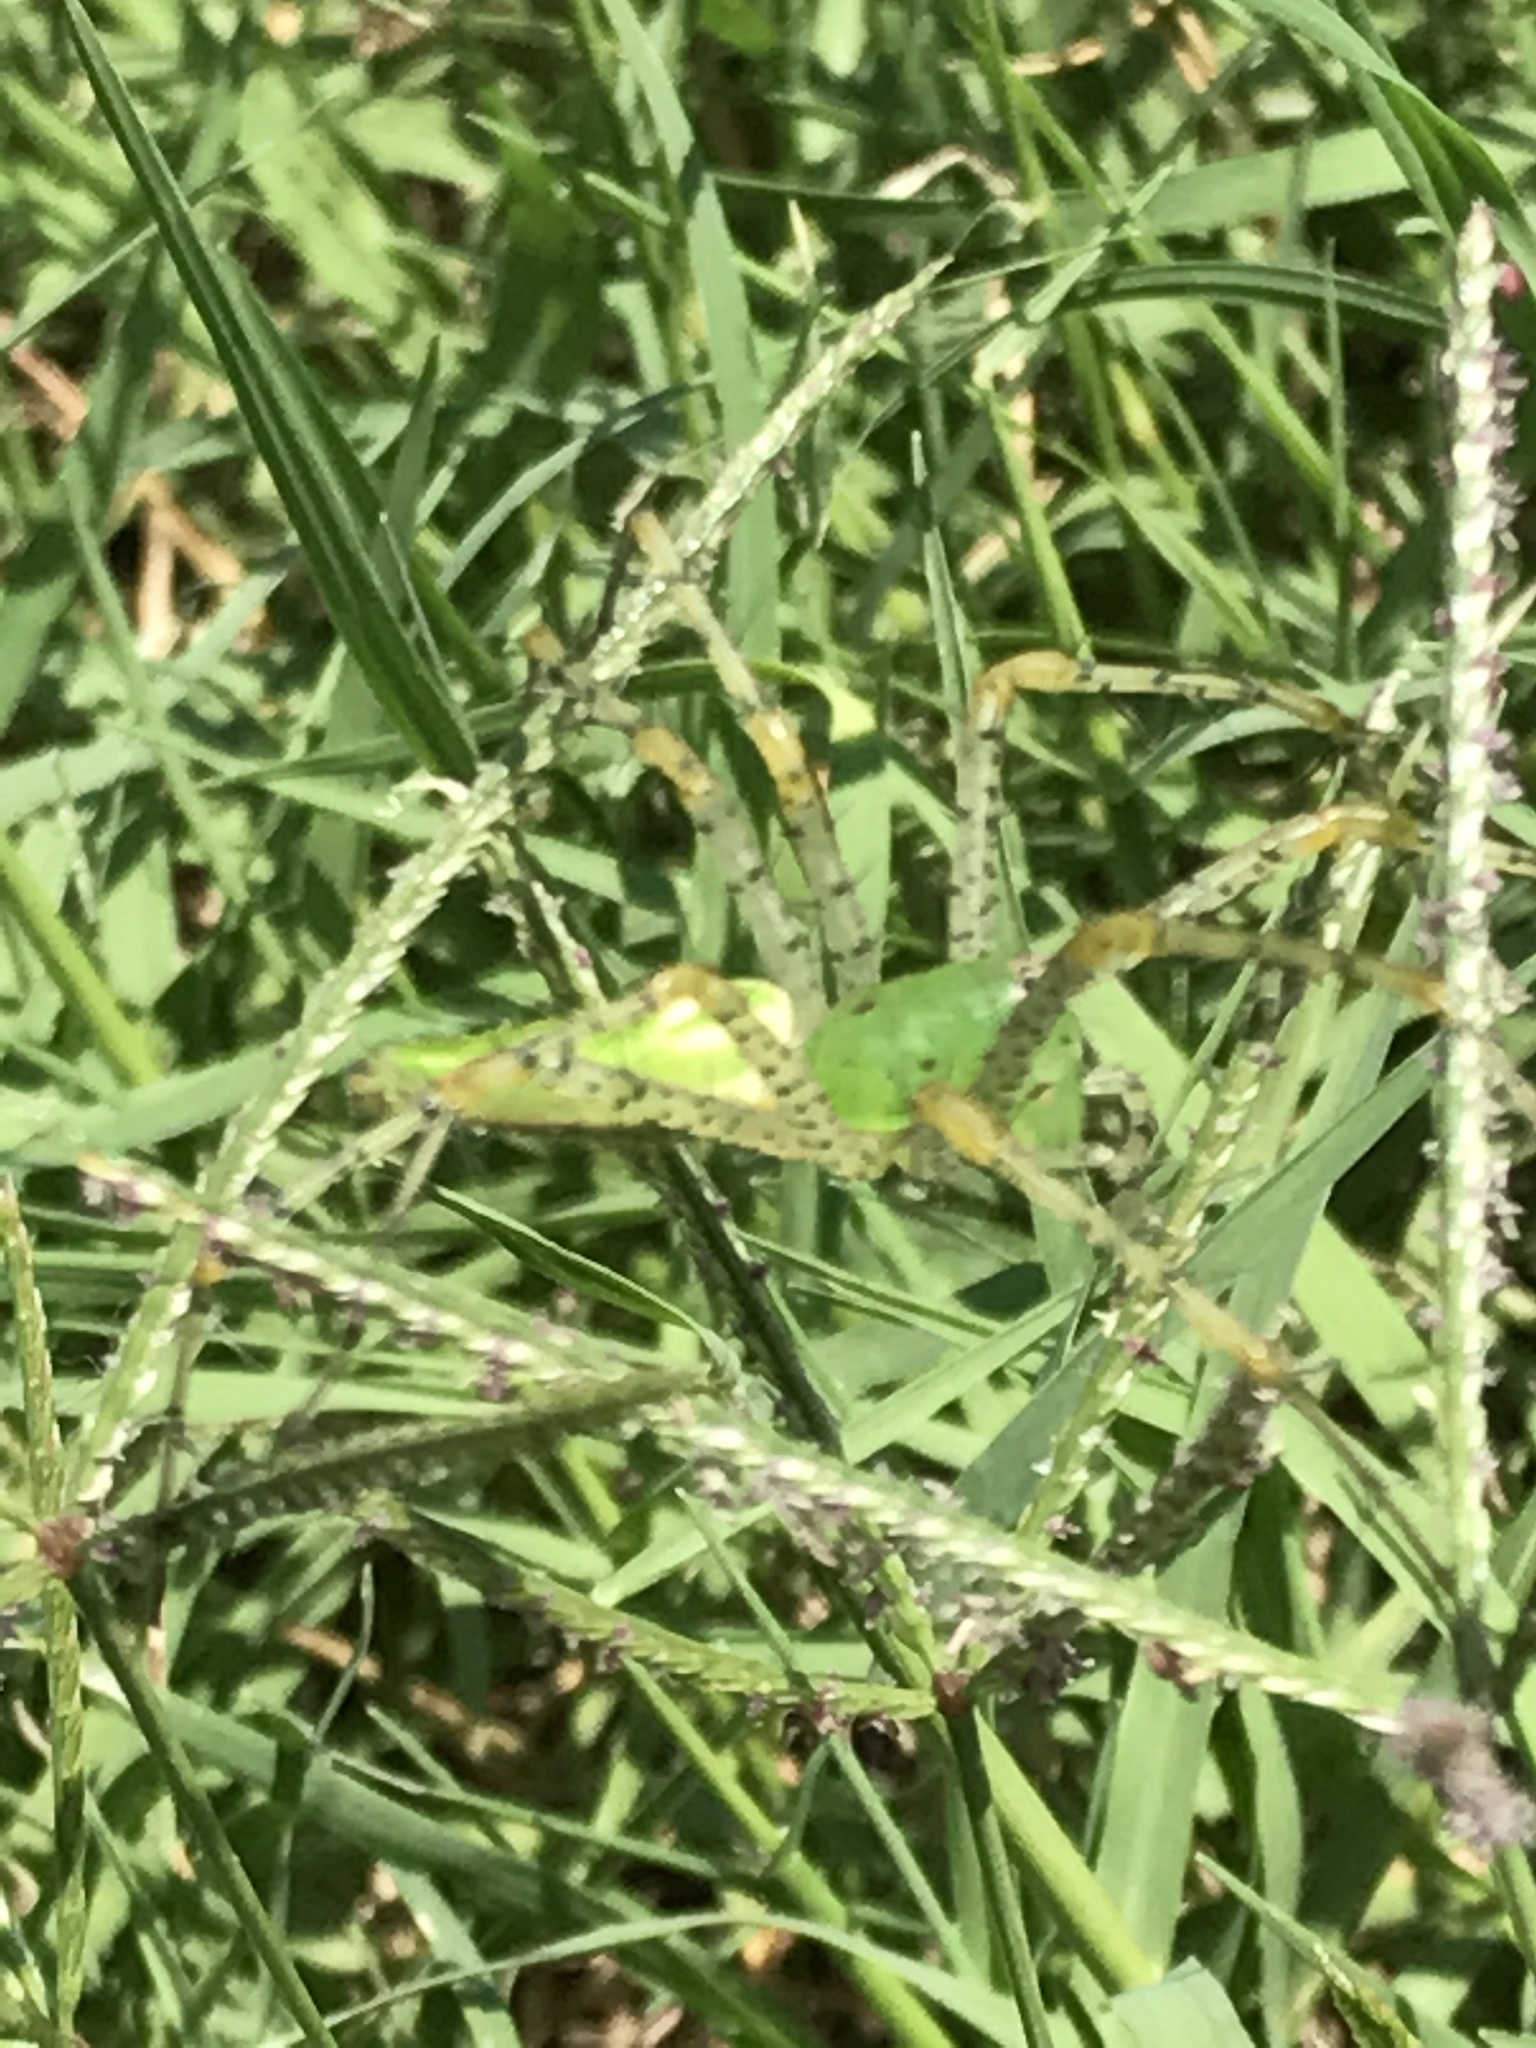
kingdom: Animalia
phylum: Arthropoda
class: Arachnida
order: Araneae
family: Oxyopidae
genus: Peucetia
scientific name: Peucetia viridans
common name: Lynx spiders
